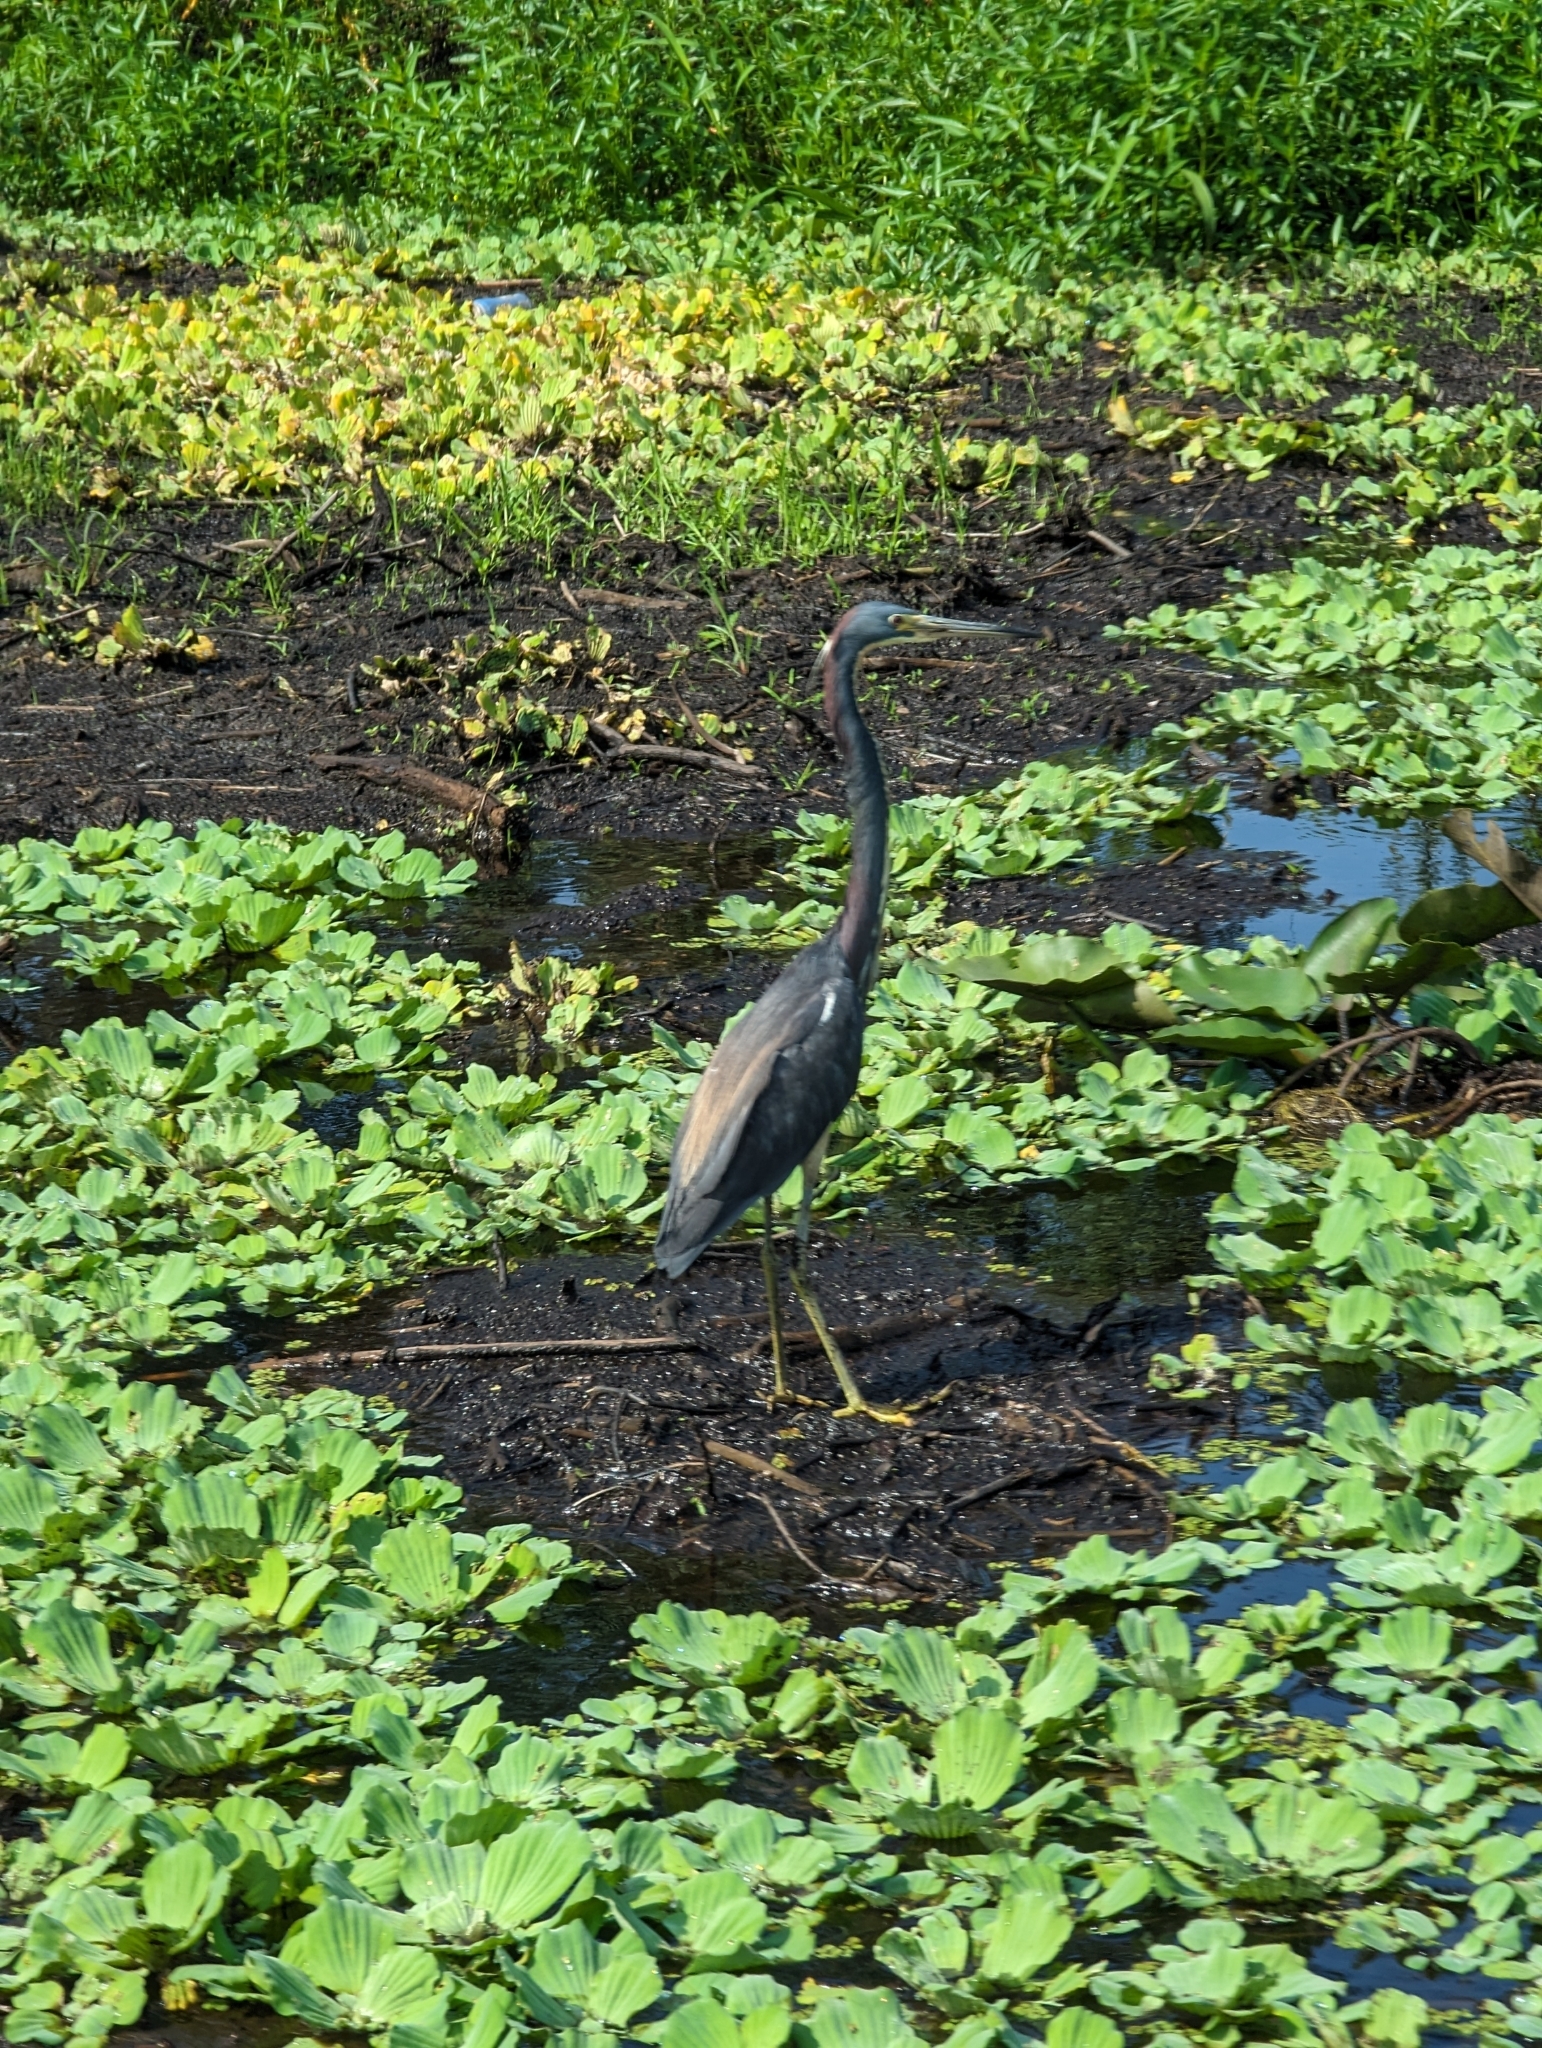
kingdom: Animalia
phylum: Chordata
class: Aves
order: Pelecaniformes
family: Ardeidae
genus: Egretta
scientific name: Egretta tricolor
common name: Tricolored heron
